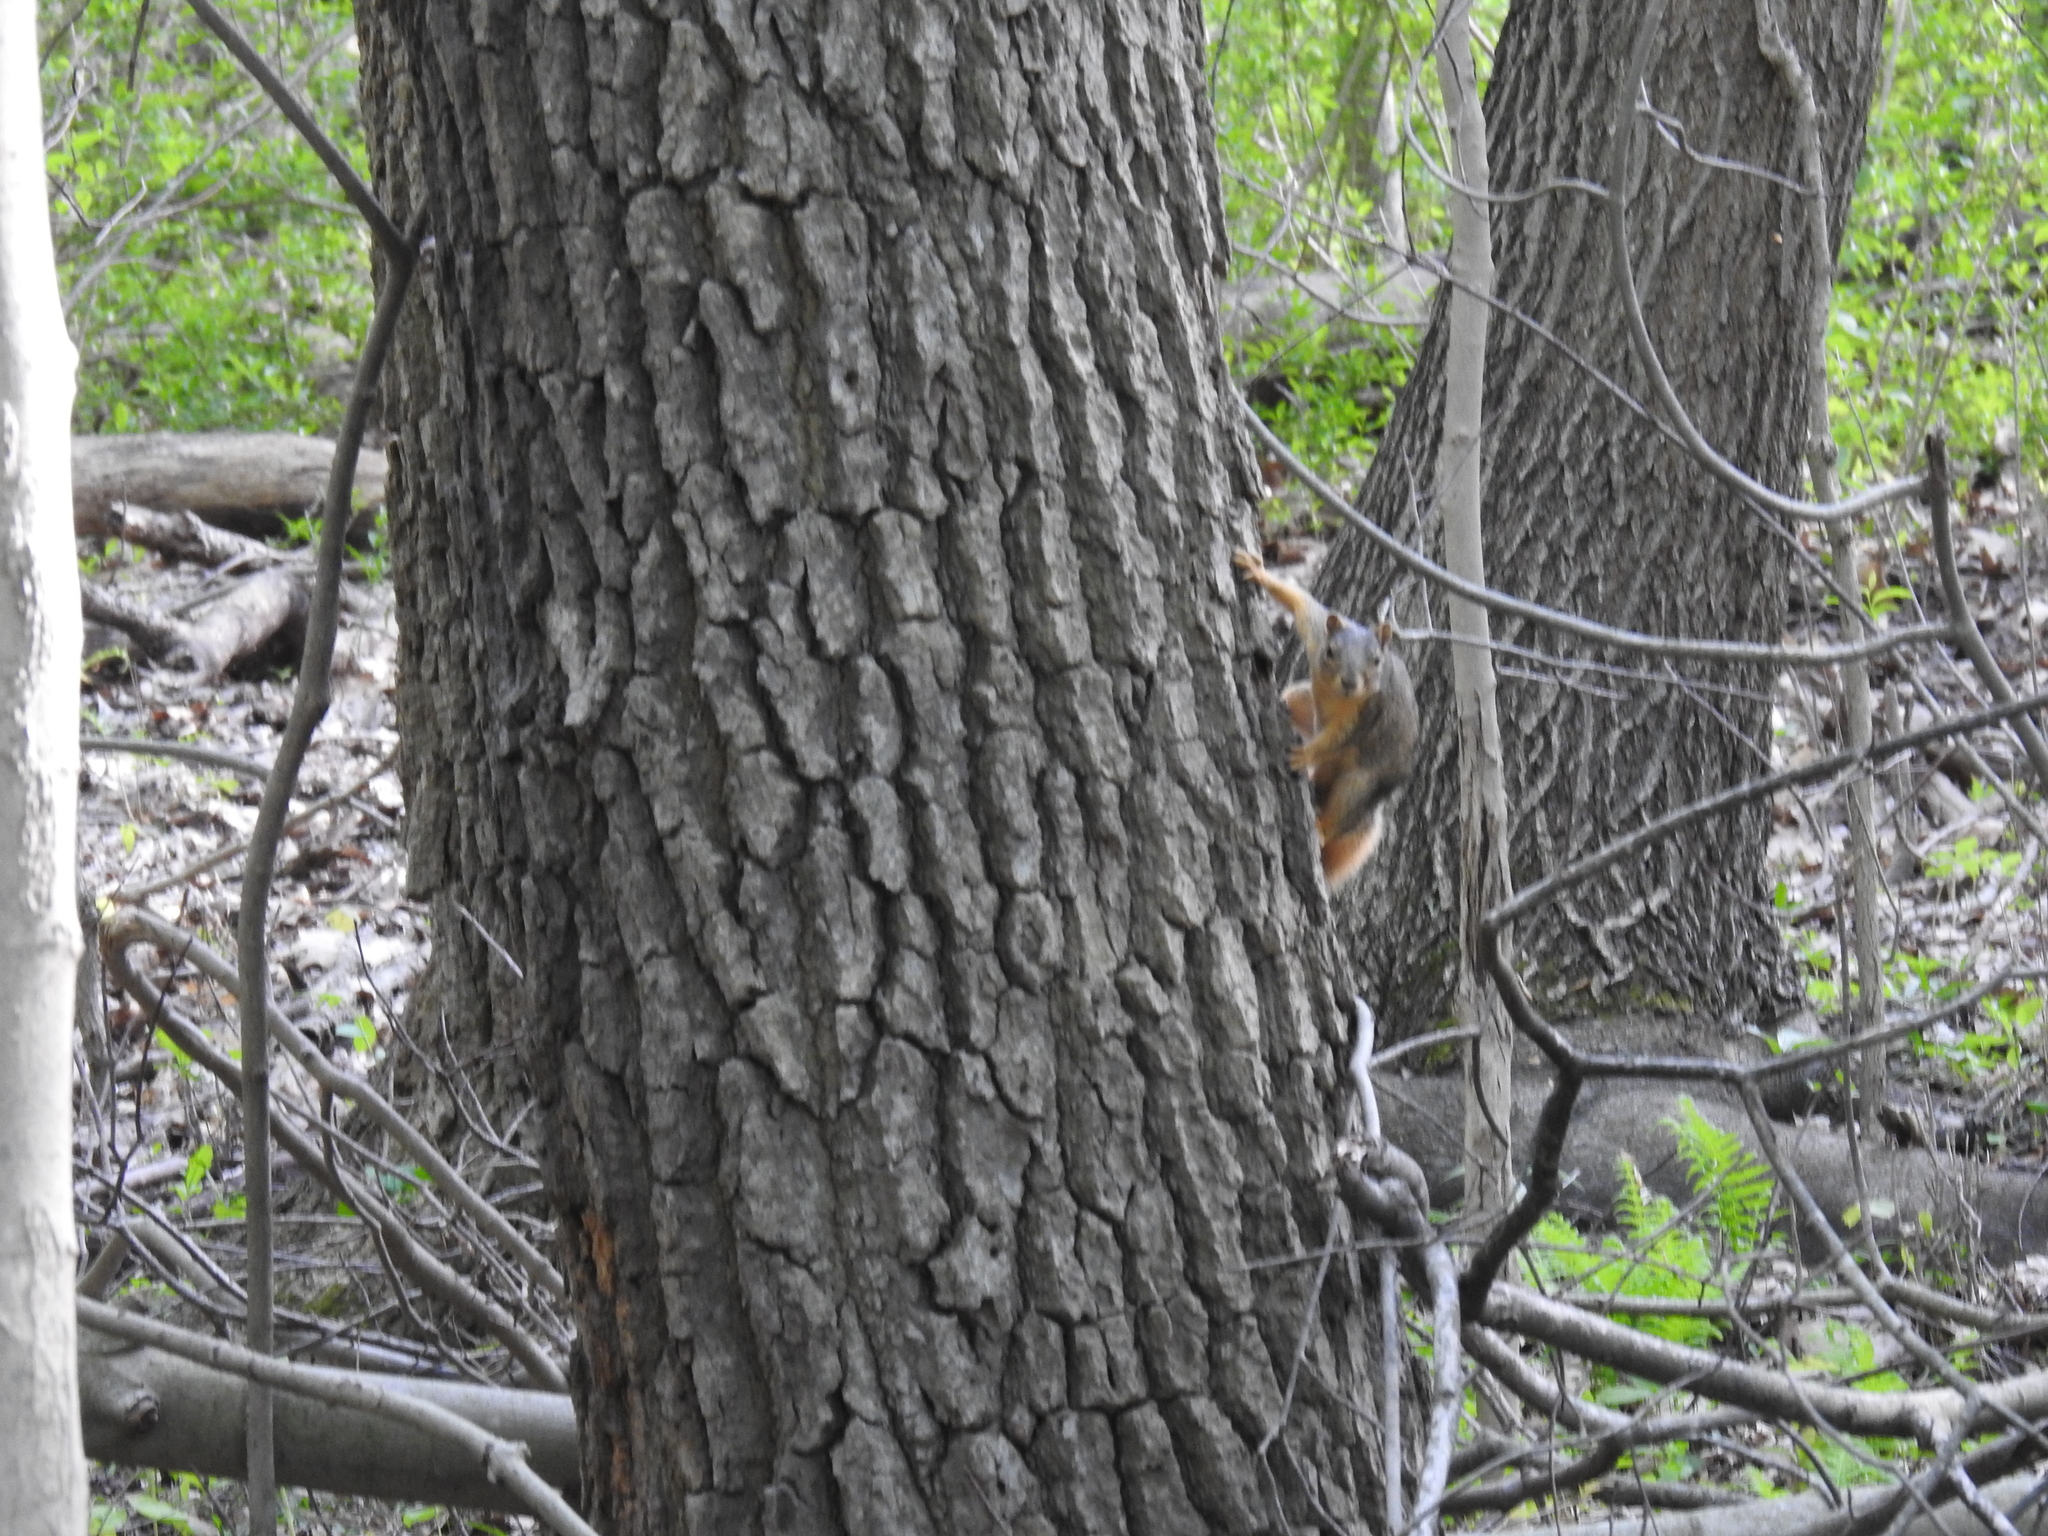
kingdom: Animalia
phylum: Chordata
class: Mammalia
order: Rodentia
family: Sciuridae
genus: Sciurus
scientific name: Sciurus niger
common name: Fox squirrel
